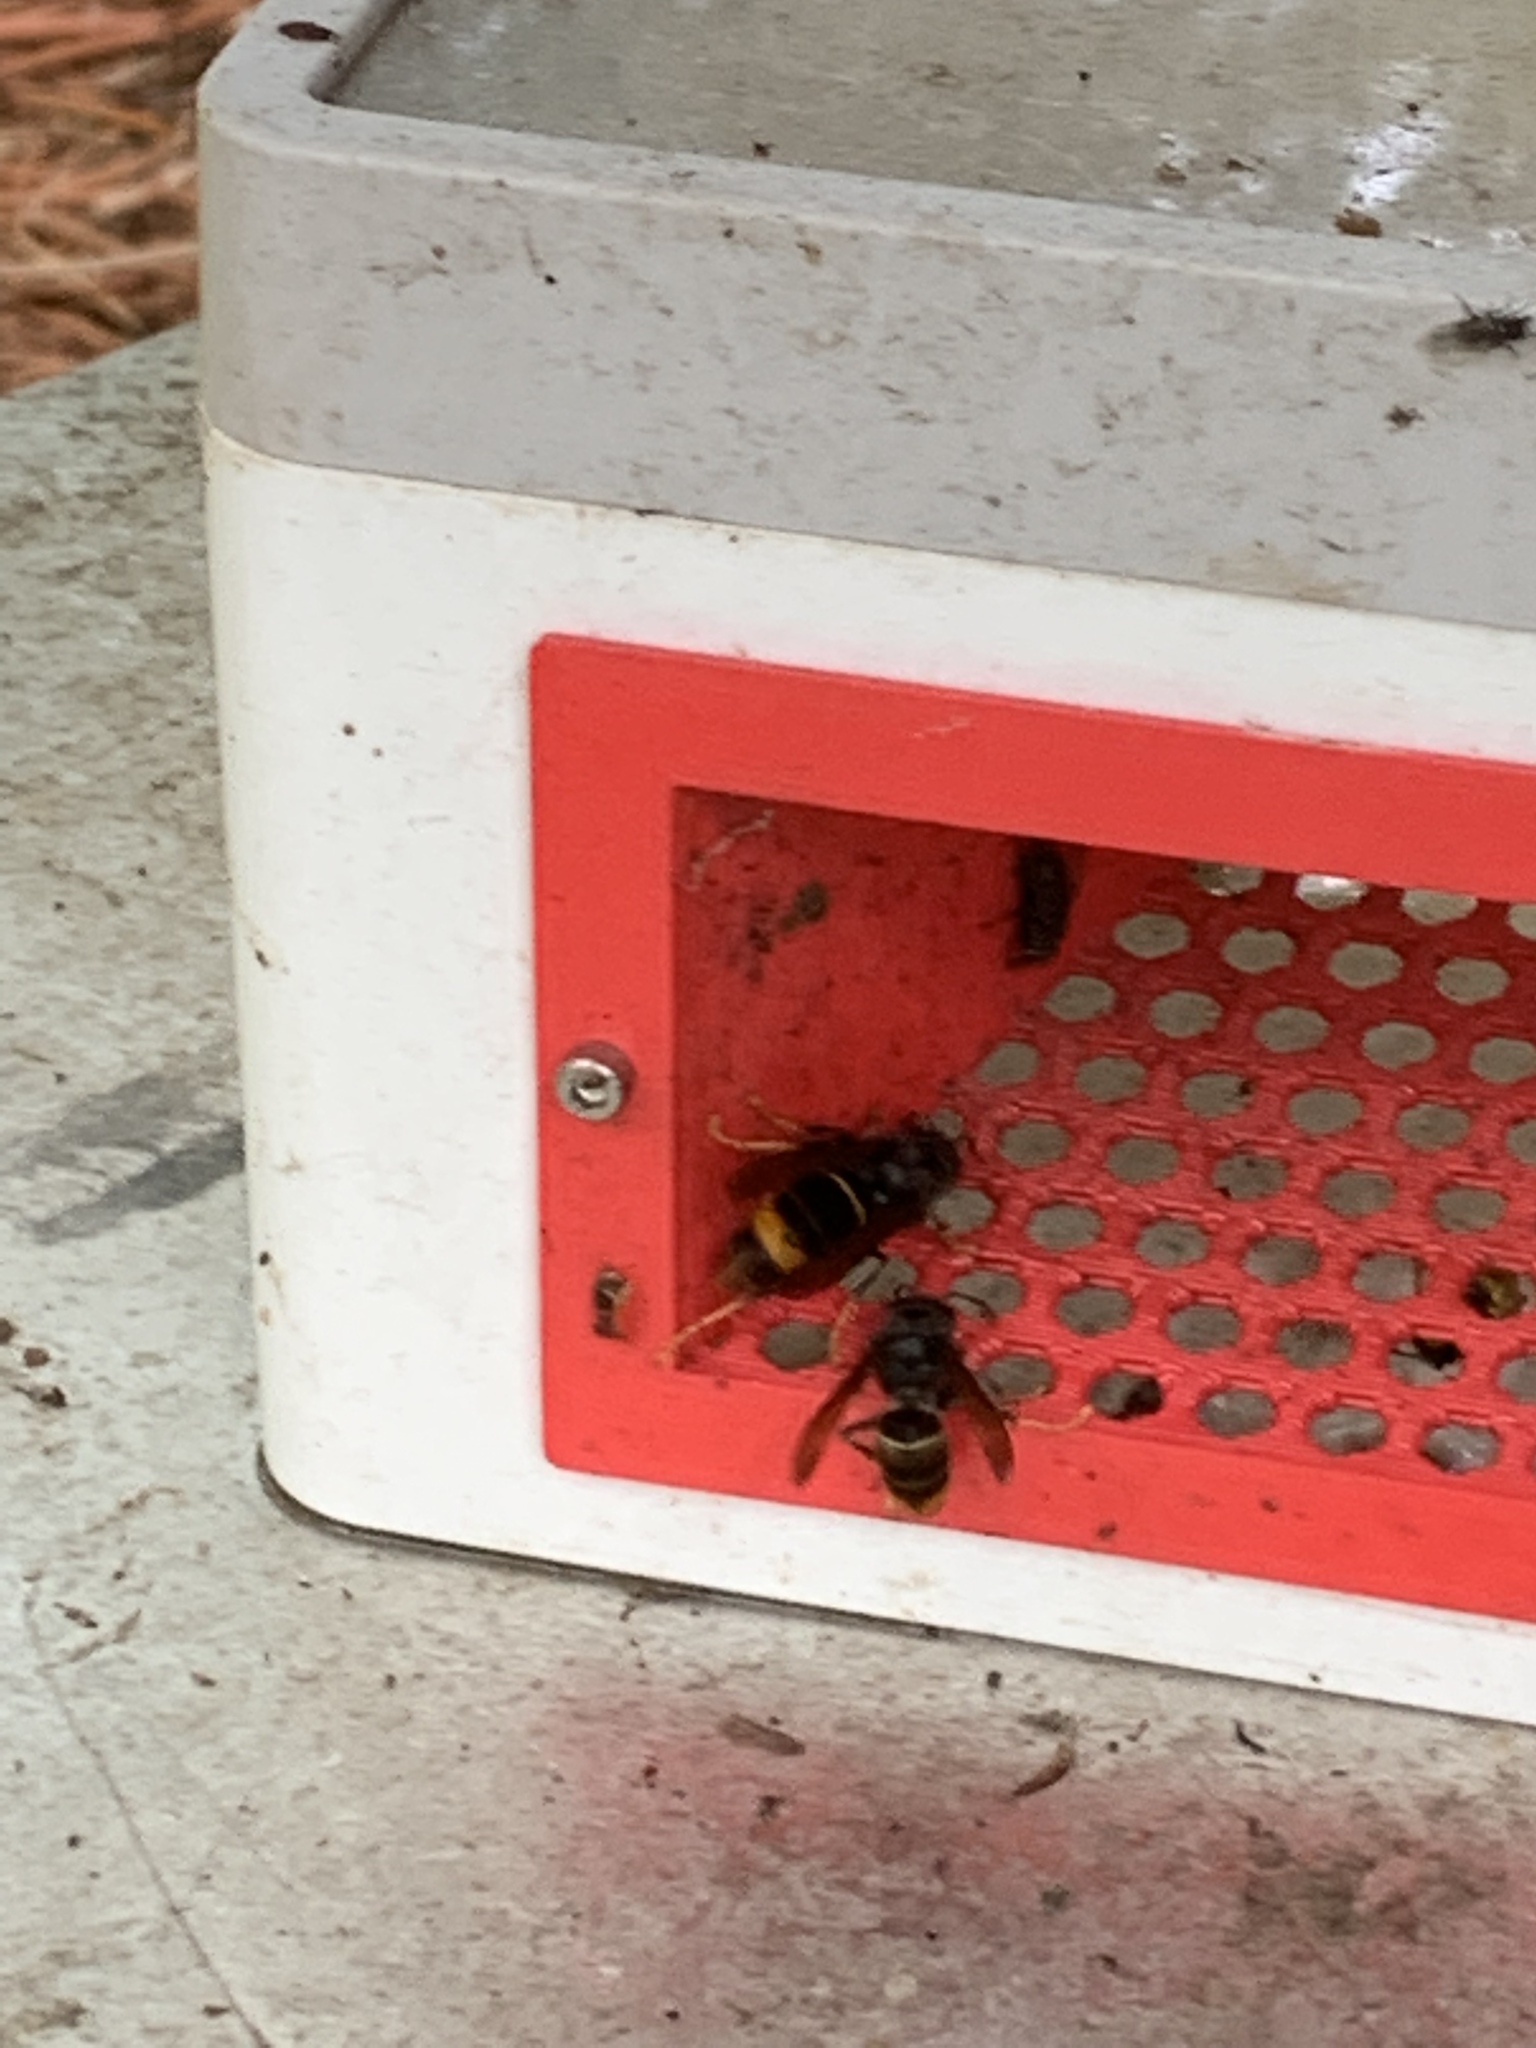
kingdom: Animalia
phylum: Arthropoda
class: Insecta
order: Hymenoptera
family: Vespidae
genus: Vespa
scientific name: Vespa velutina
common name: Asian hornet
